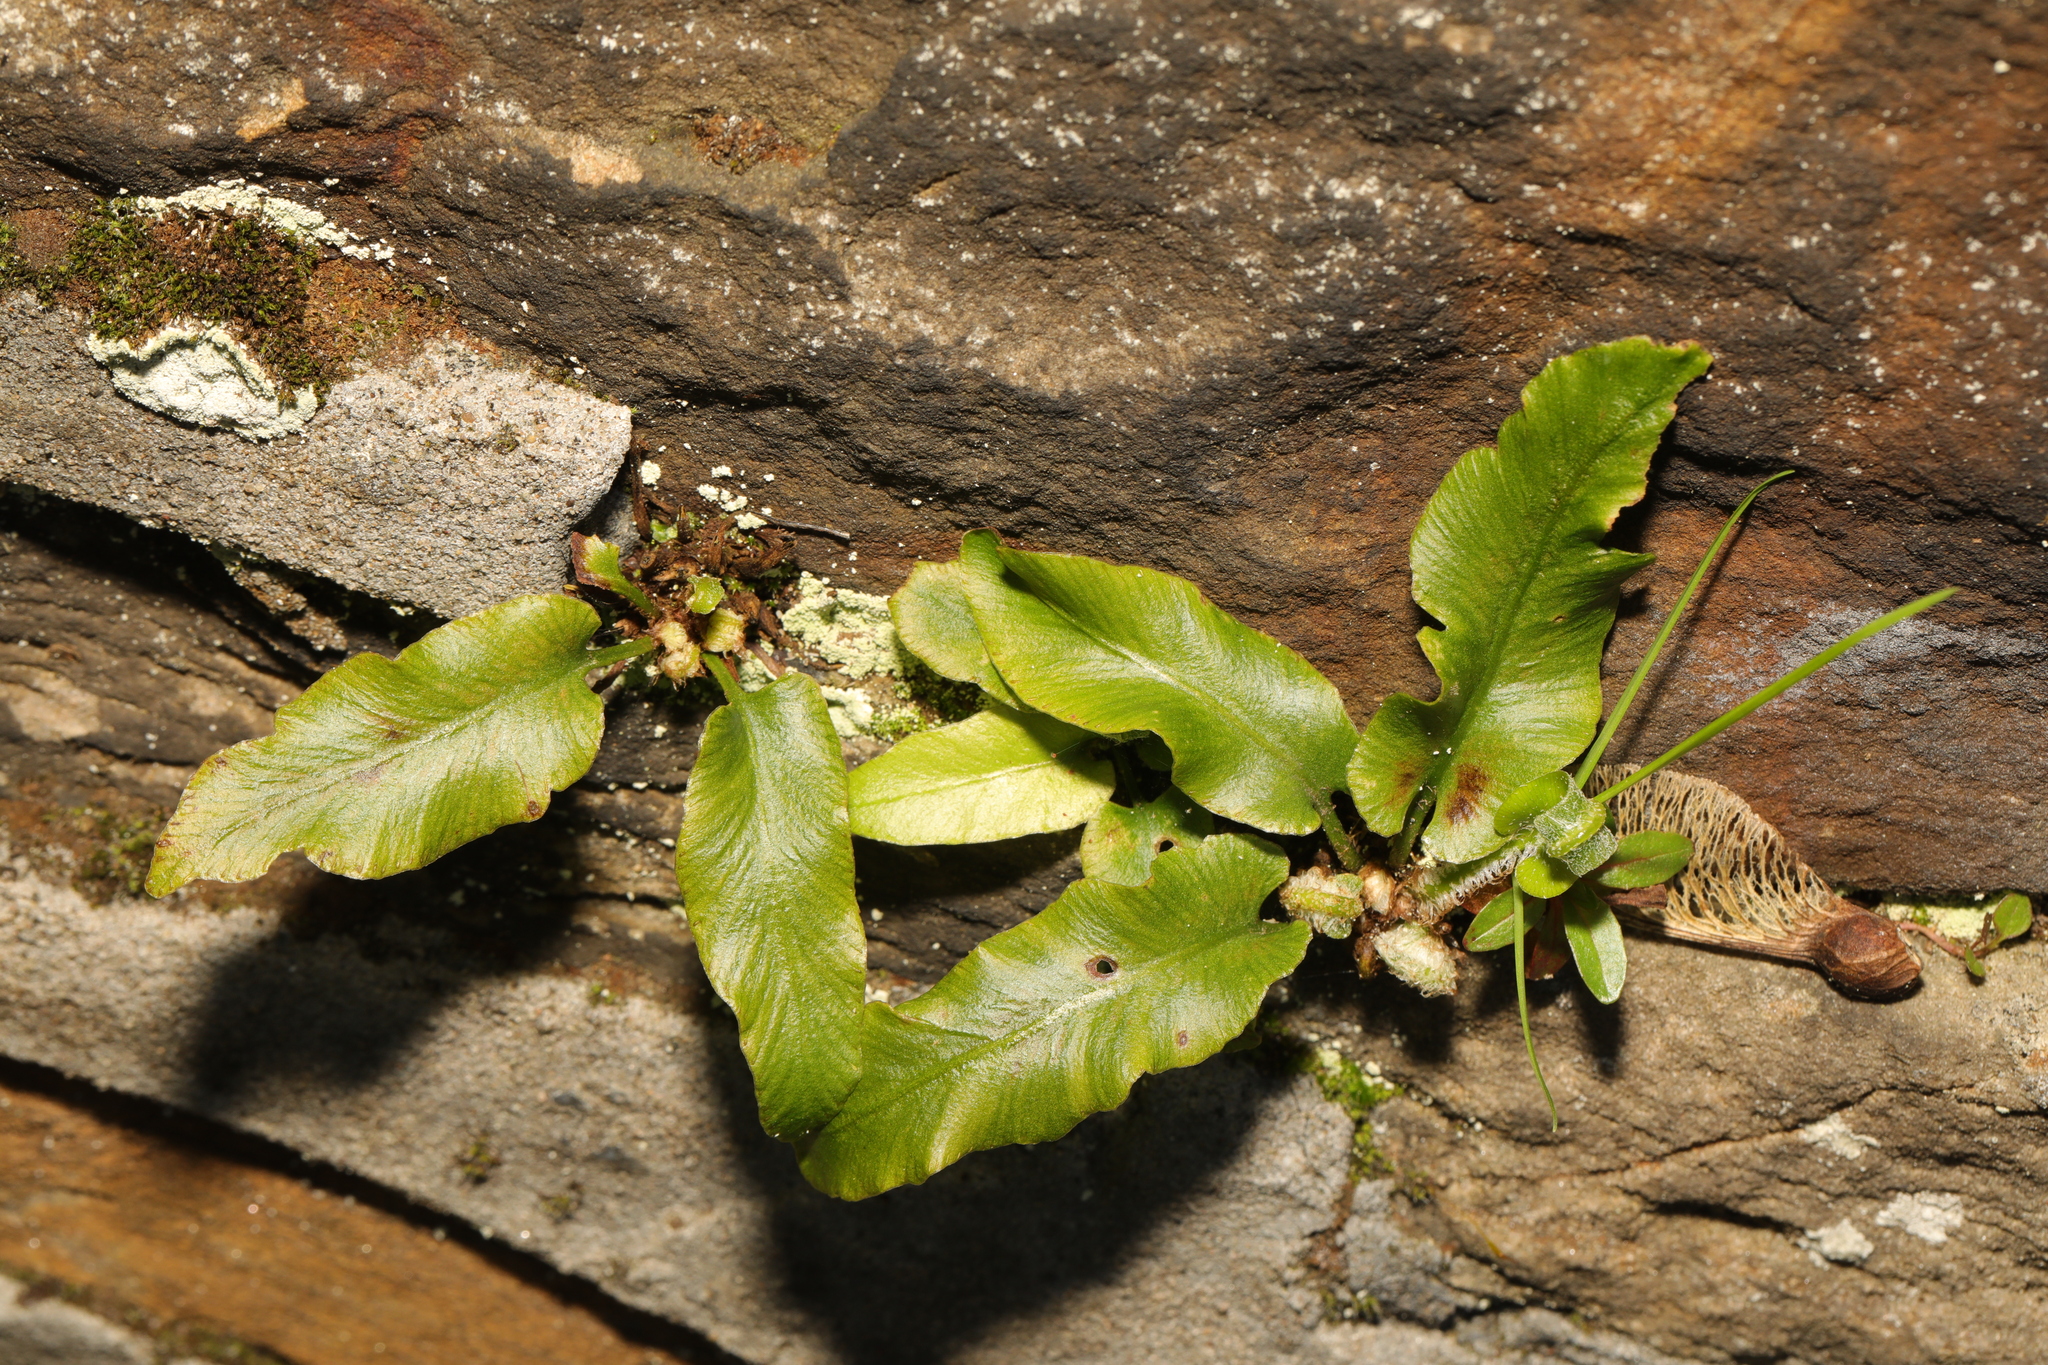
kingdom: Plantae
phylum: Tracheophyta
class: Polypodiopsida
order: Polypodiales
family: Aspleniaceae
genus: Asplenium
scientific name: Asplenium scolopendrium
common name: Hart's-tongue fern
